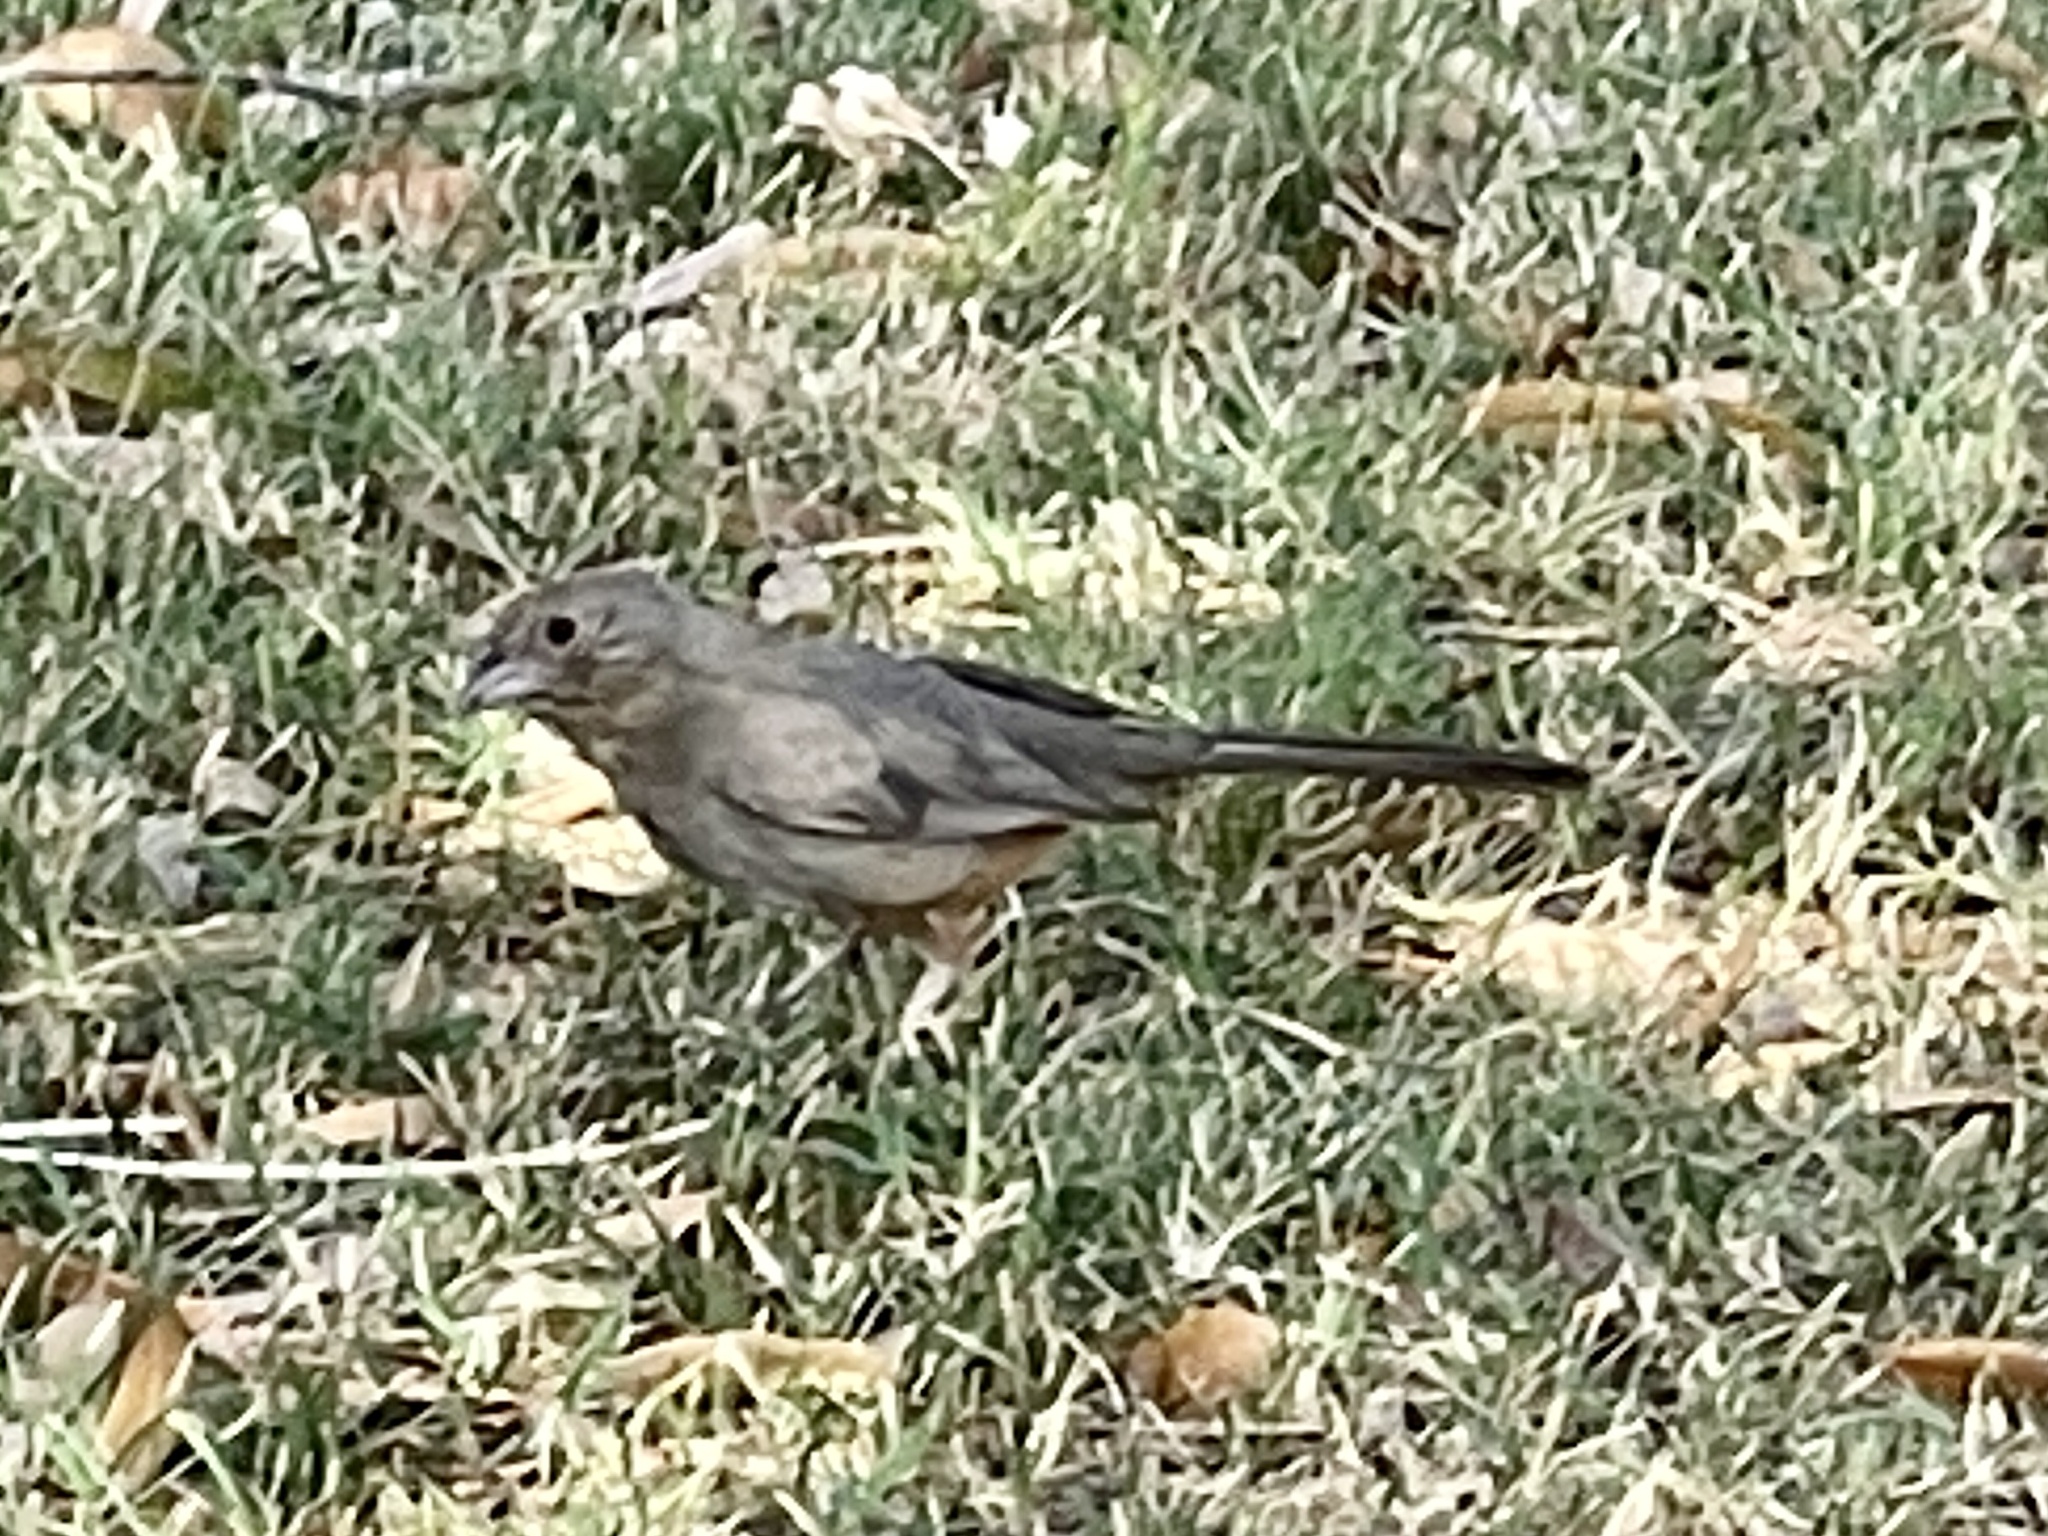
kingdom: Animalia
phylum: Chordata
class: Aves
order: Passeriformes
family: Passerellidae
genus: Melozone
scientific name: Melozone fusca
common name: Canyon towhee
